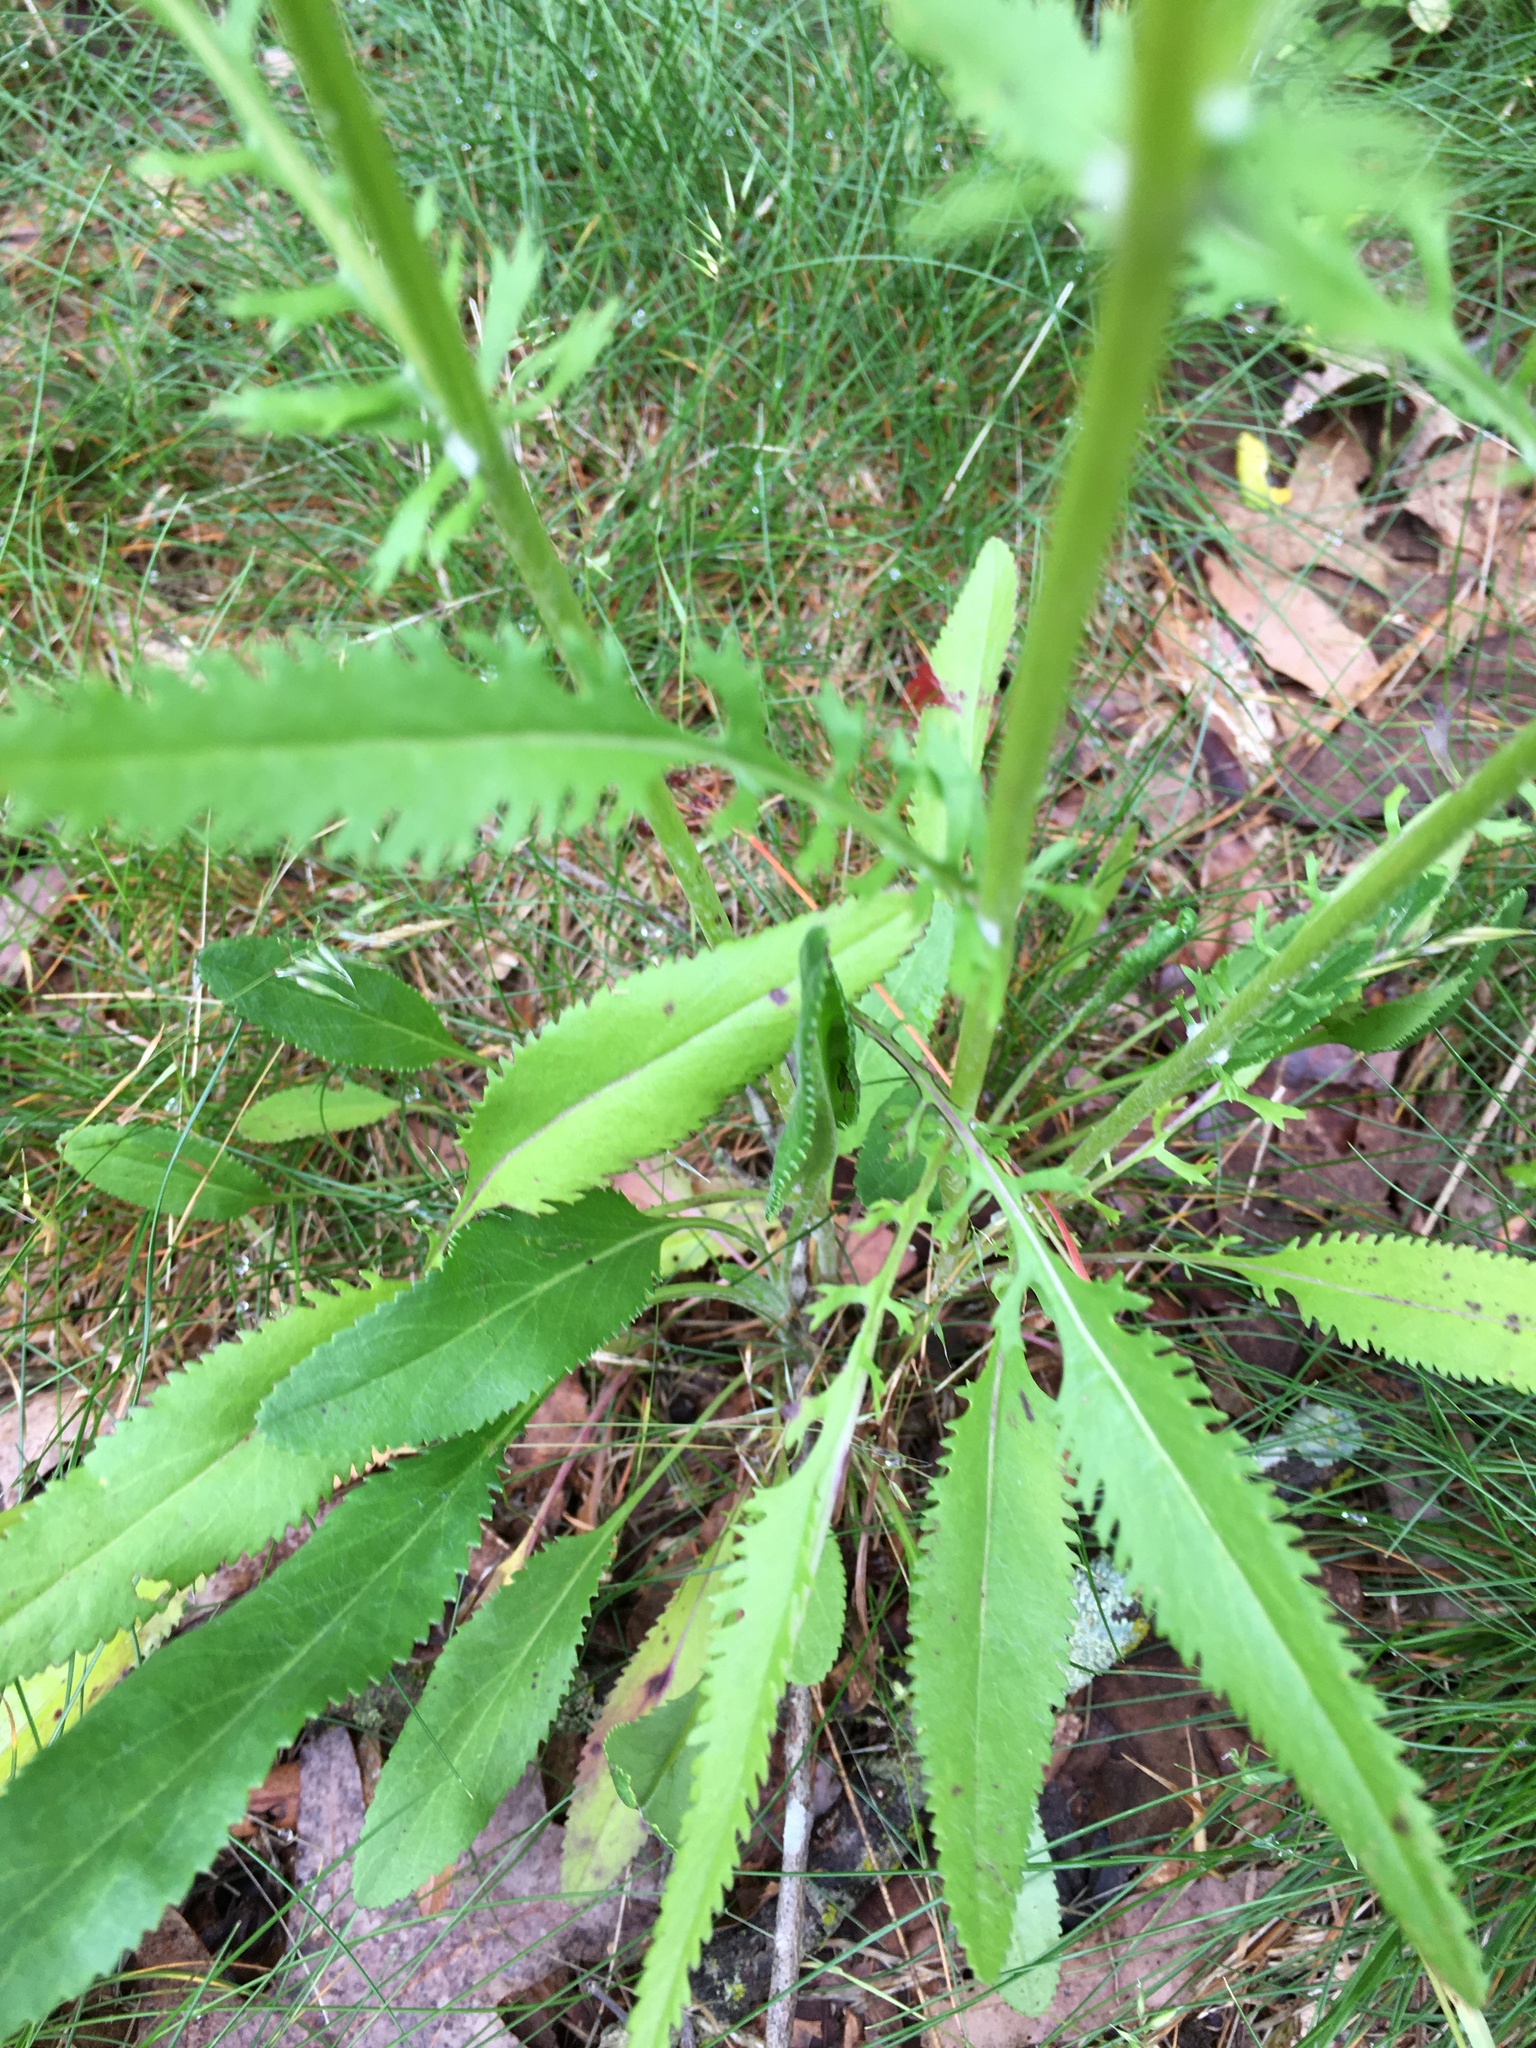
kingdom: Plantae
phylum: Tracheophyta
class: Magnoliopsida
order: Asterales
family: Asteraceae
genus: Packera
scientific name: Packera anonyma
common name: Small ragwort
